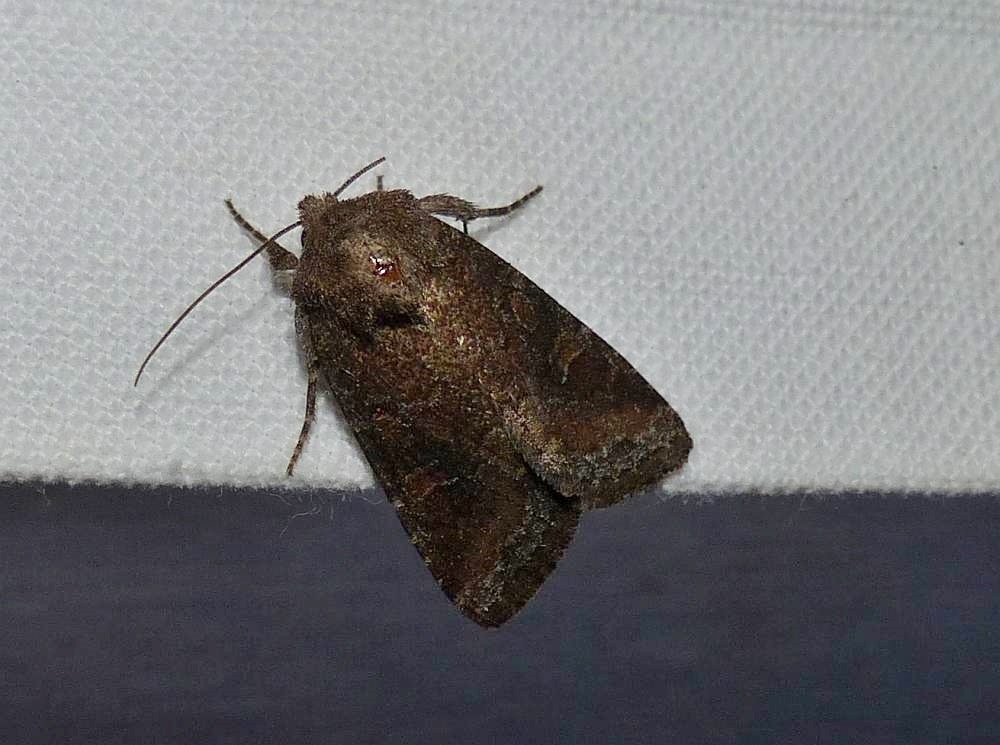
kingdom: Animalia
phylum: Arthropoda
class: Insecta
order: Lepidoptera
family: Noctuidae
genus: Lacinipolia
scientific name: Lacinipolia meditata
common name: Thinker moth
